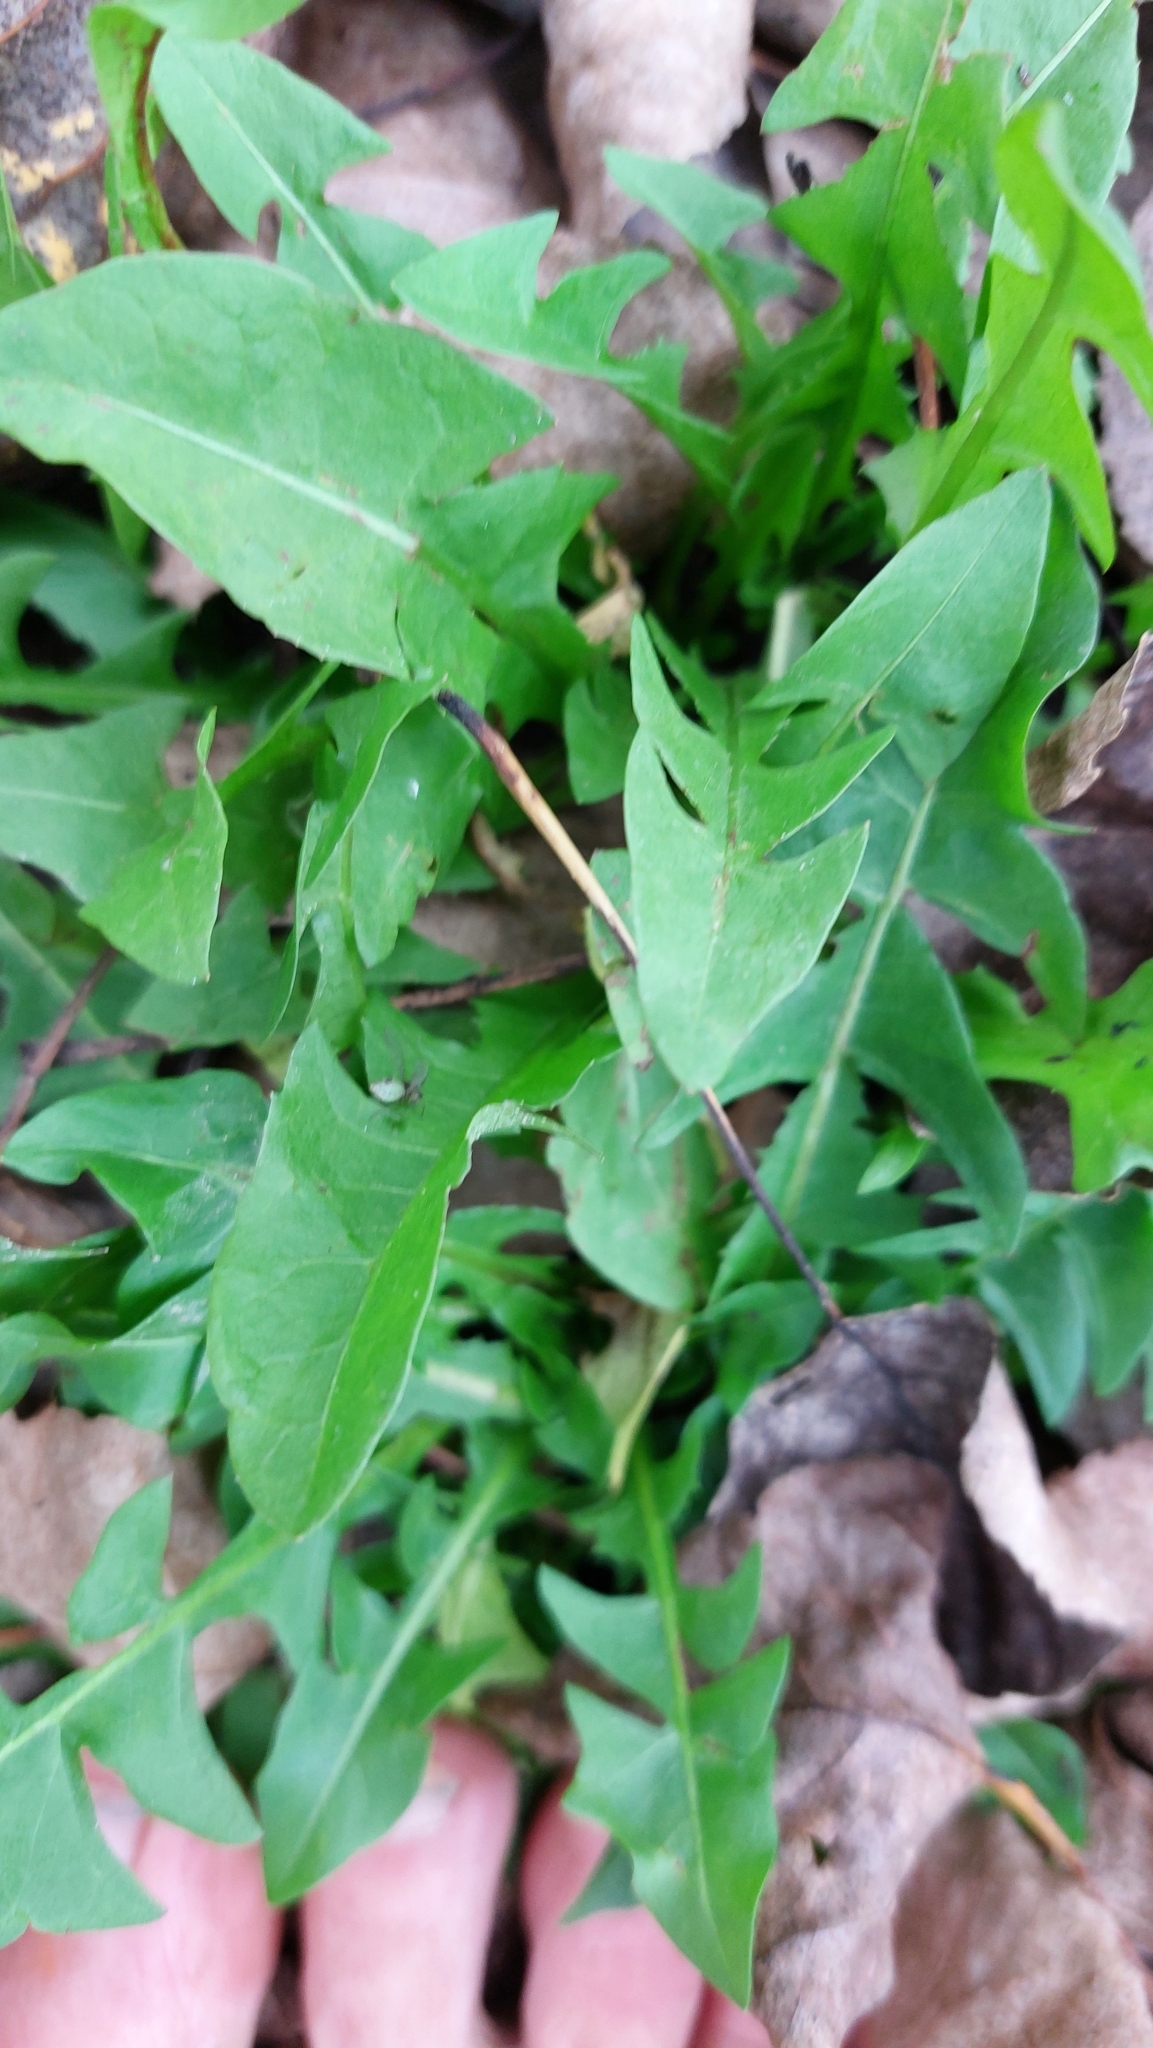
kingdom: Plantae
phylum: Tracheophyta
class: Magnoliopsida
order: Asterales
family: Asteraceae
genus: Taraxacum
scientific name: Taraxacum
